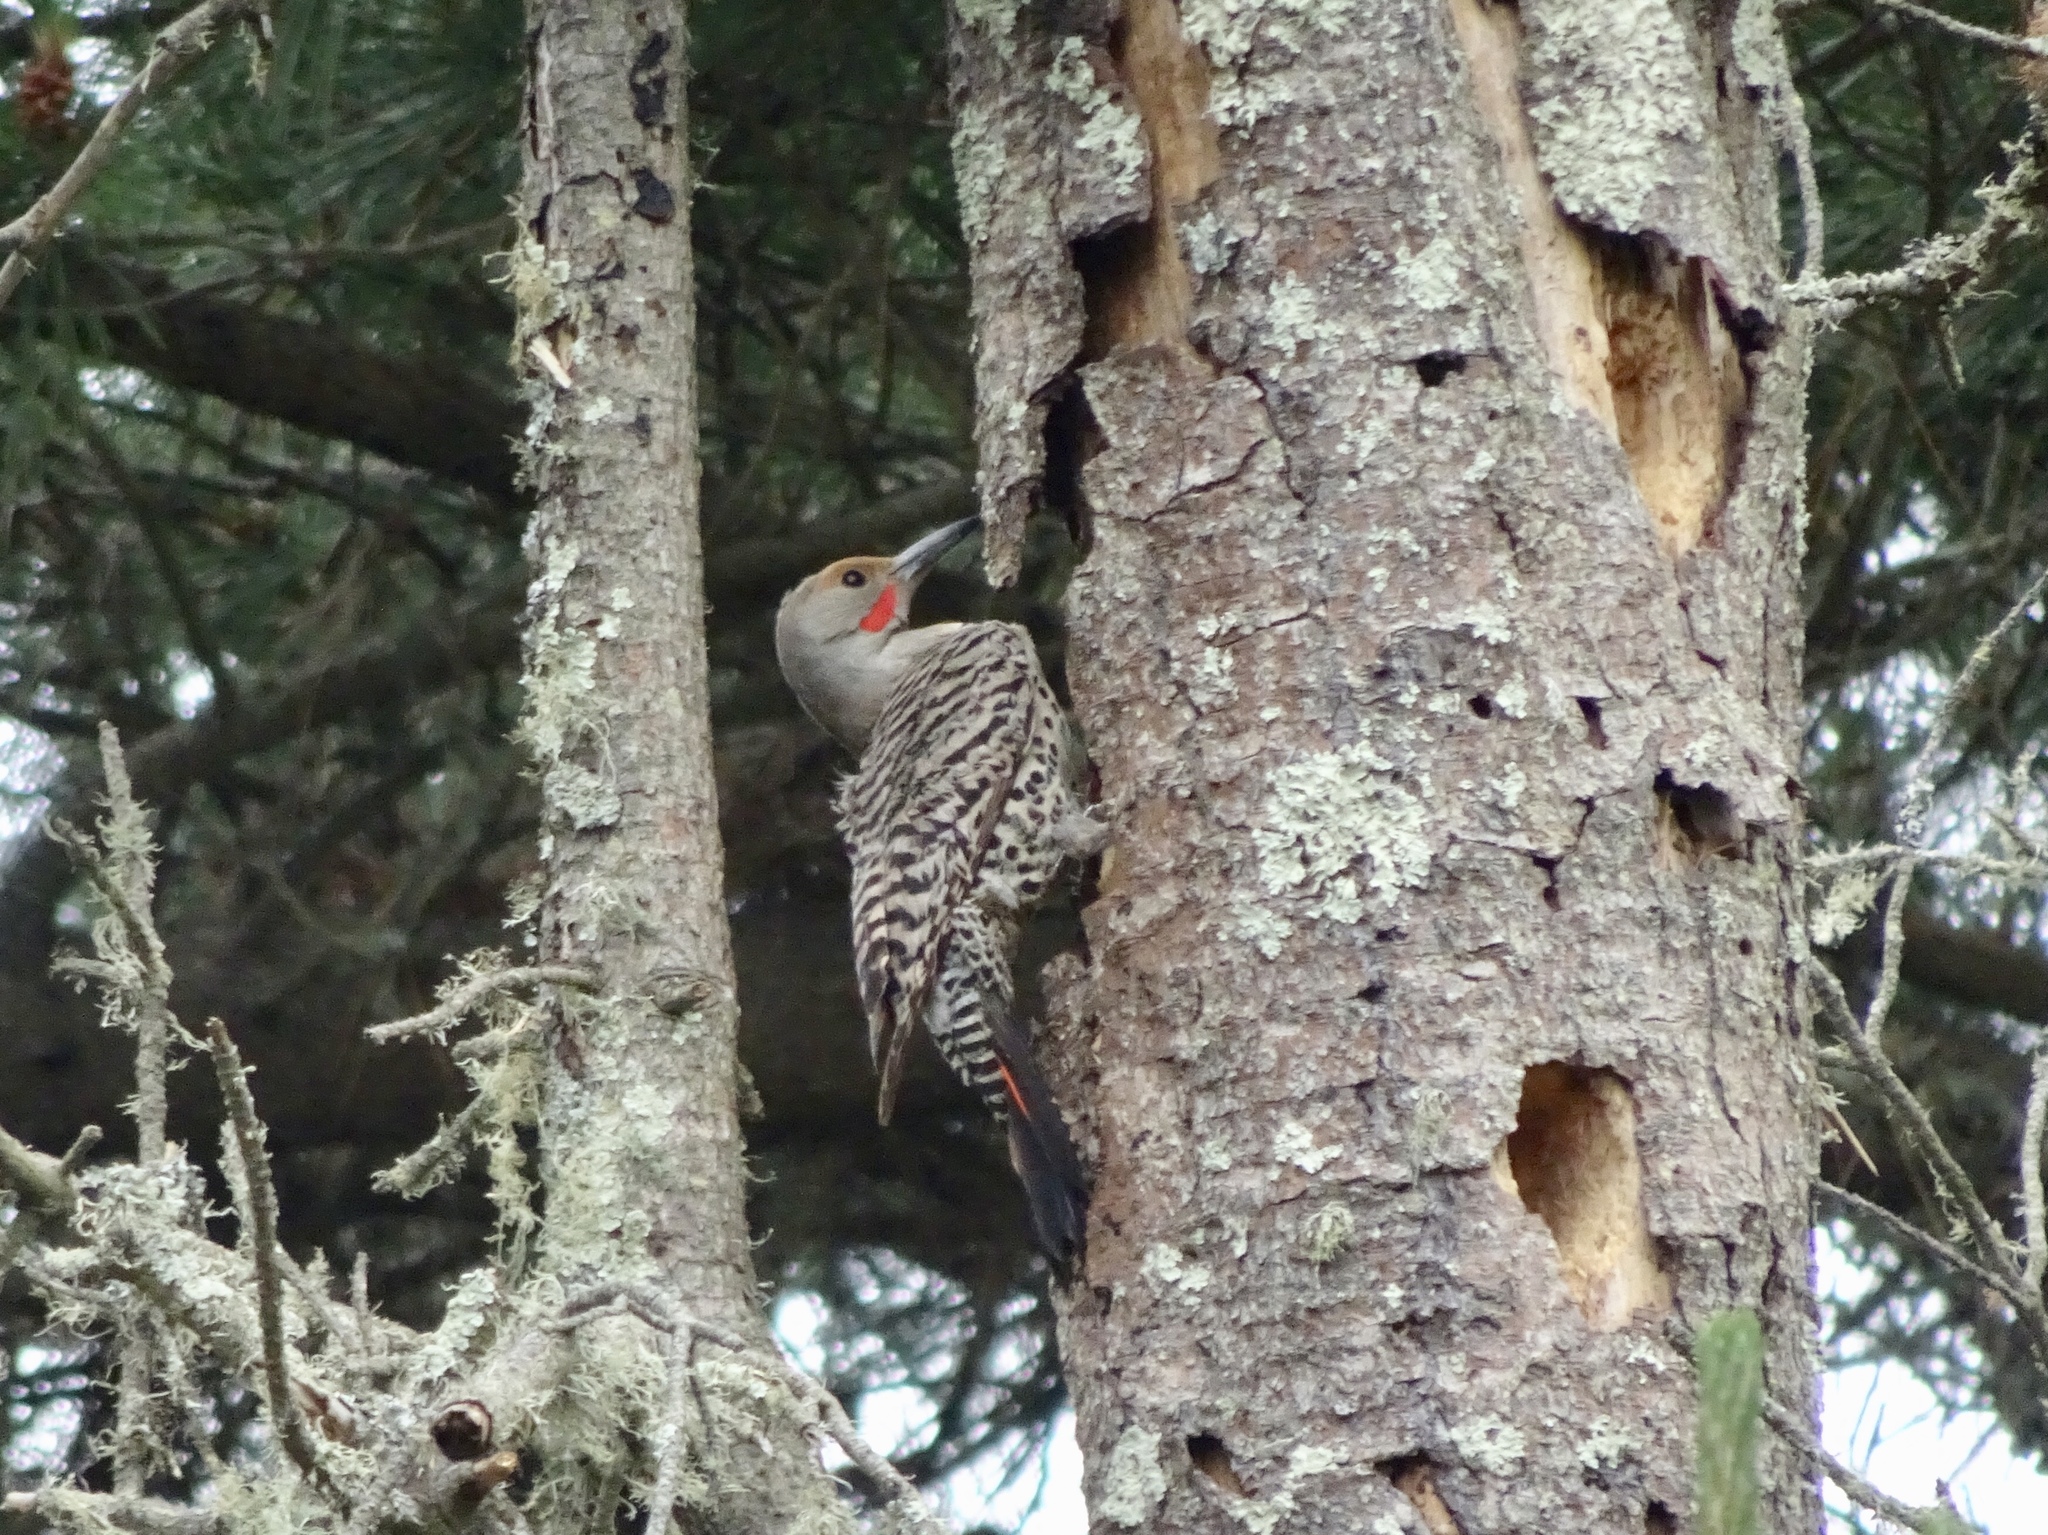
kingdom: Animalia
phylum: Chordata
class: Aves
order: Piciformes
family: Picidae
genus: Colaptes
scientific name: Colaptes auratus
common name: Northern flicker
